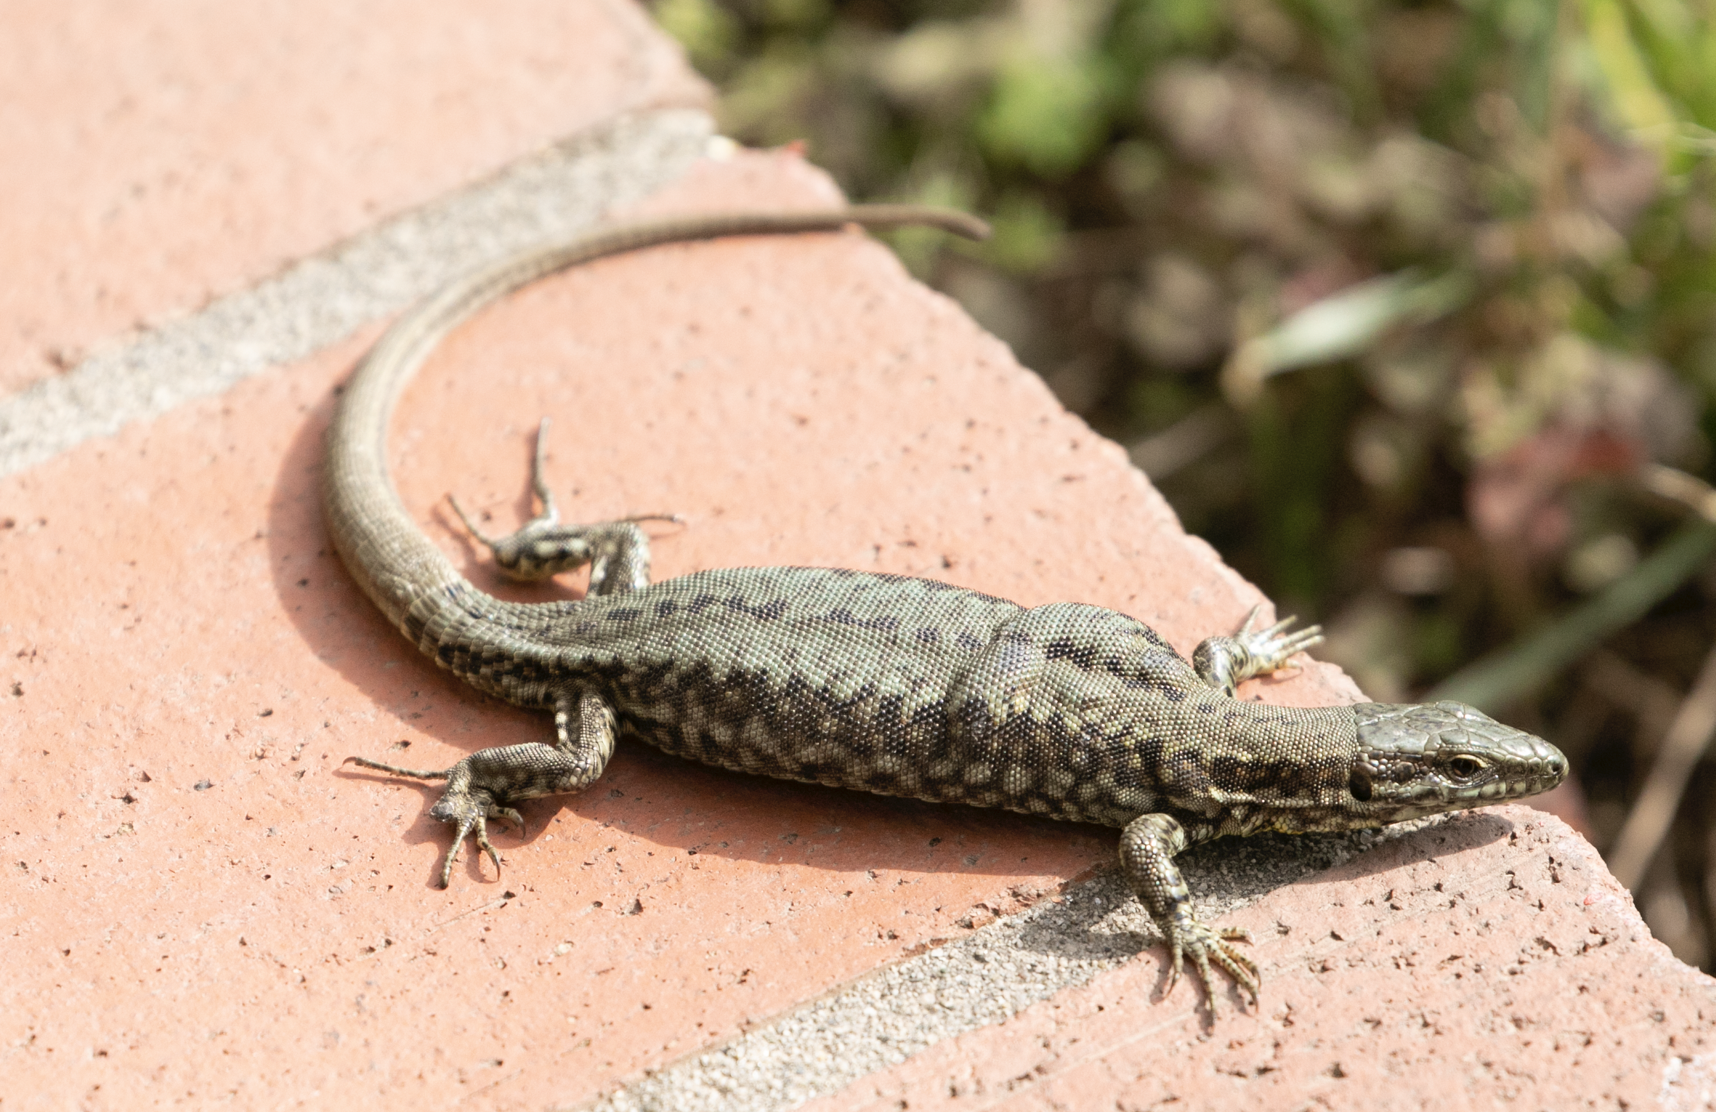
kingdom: Animalia
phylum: Chordata
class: Squamata
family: Lacertidae
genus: Podarcis
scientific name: Podarcis muralis
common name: Common wall lizard
